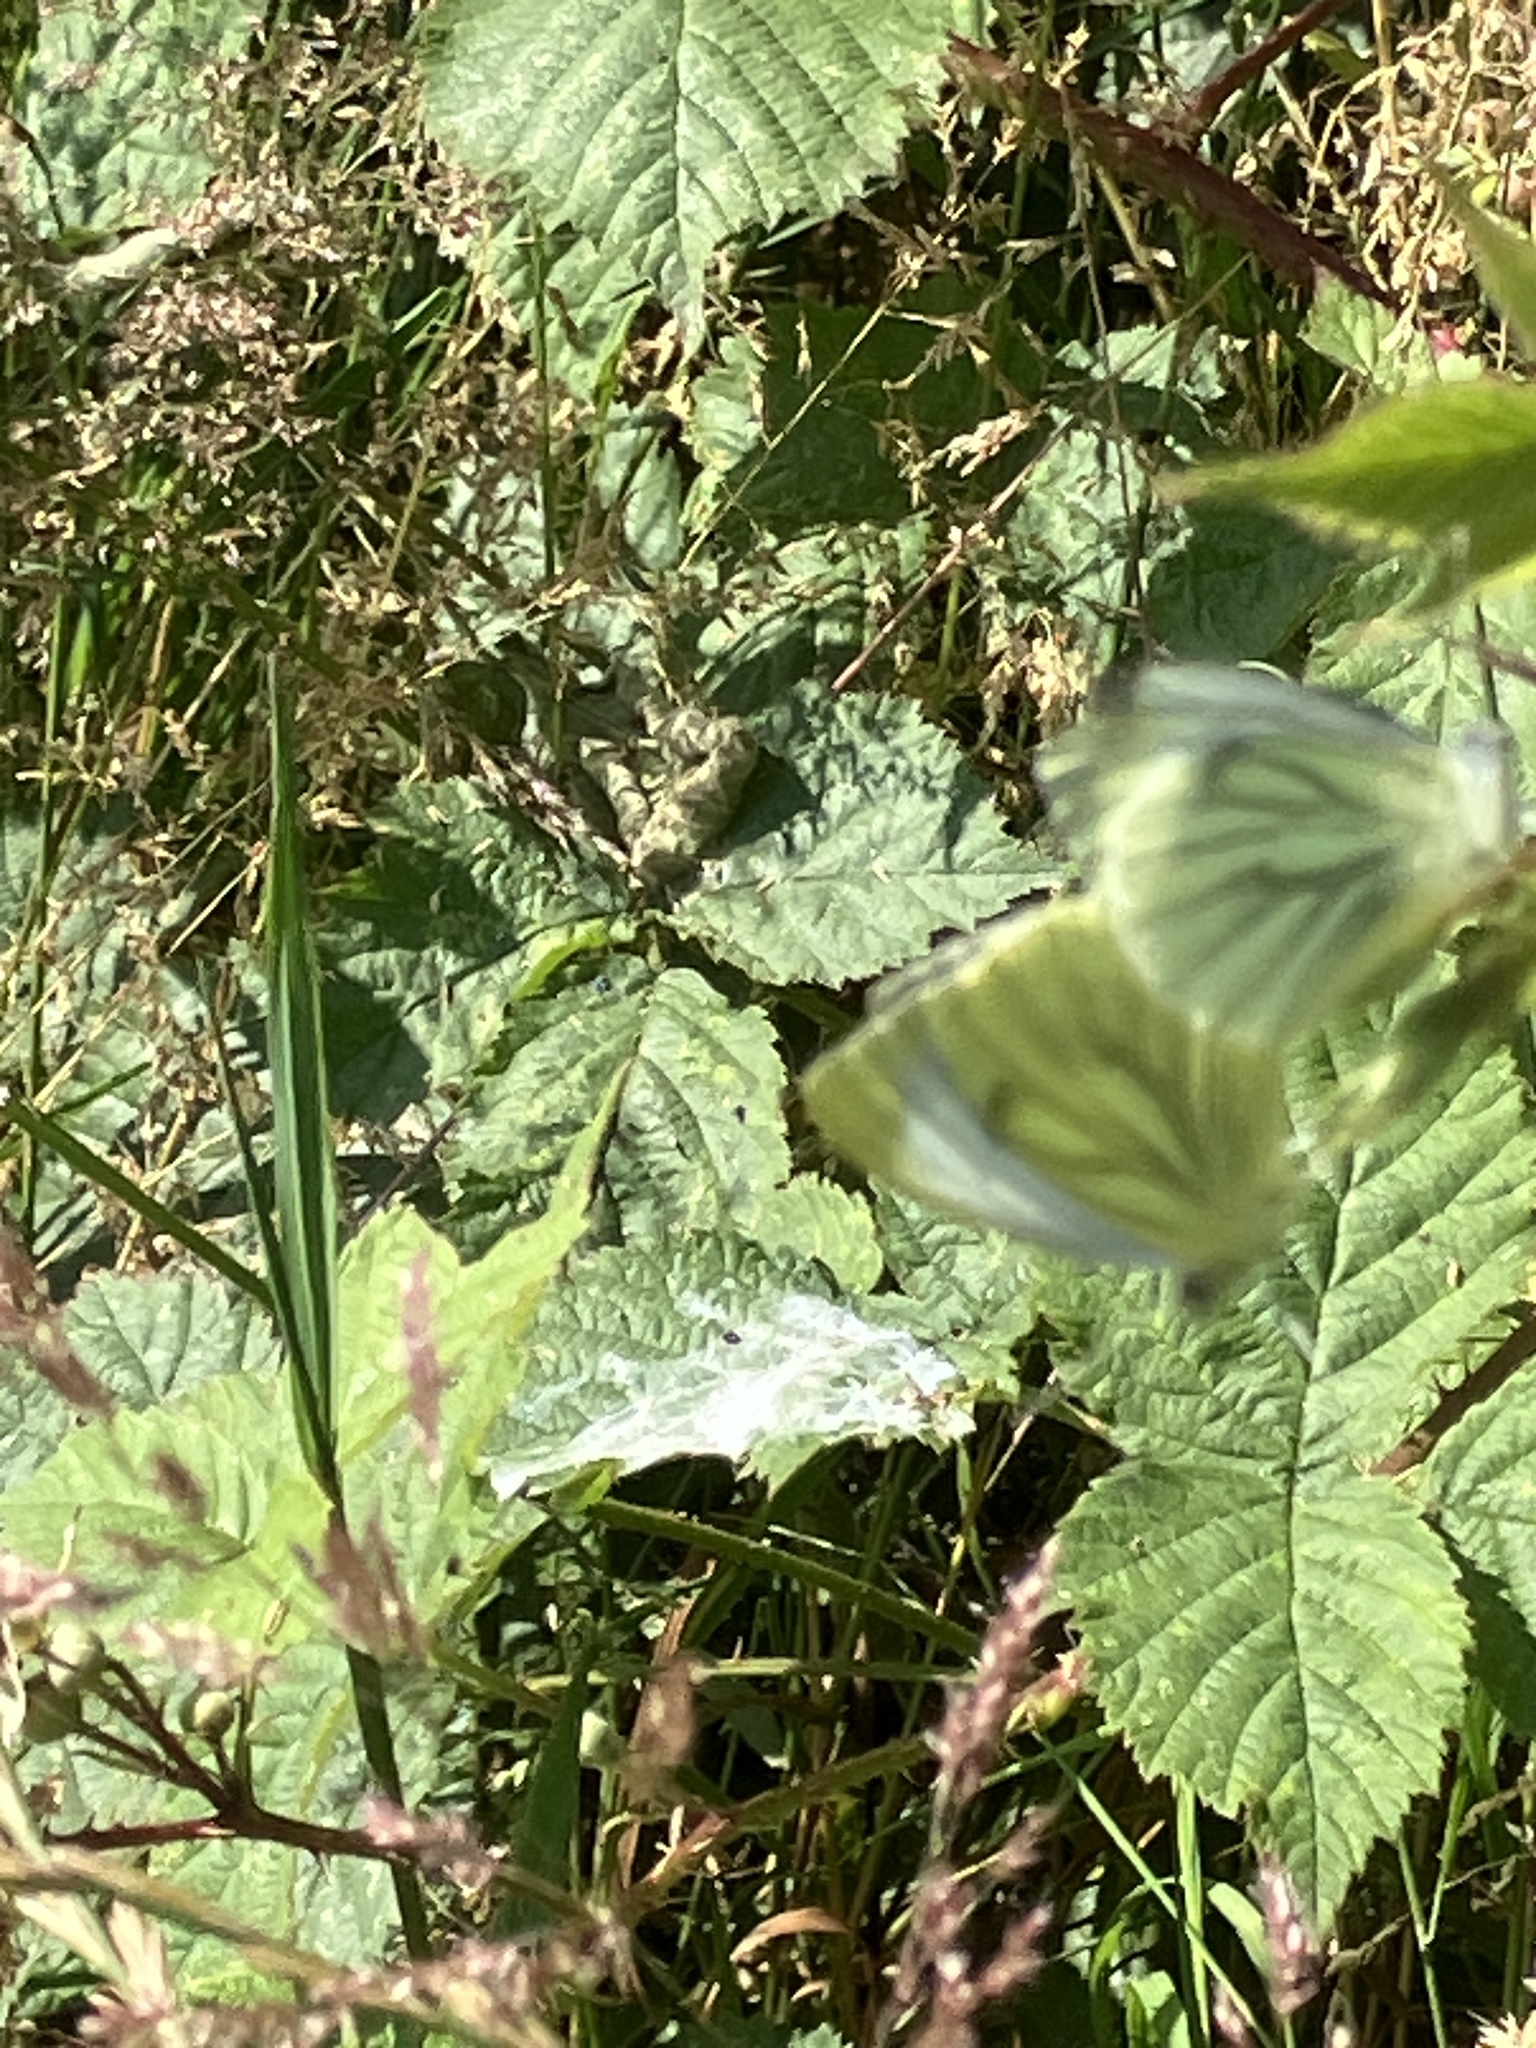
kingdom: Animalia
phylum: Arthropoda
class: Insecta
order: Lepidoptera
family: Pieridae
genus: Pieris
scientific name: Pieris napi
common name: Green-veined white
